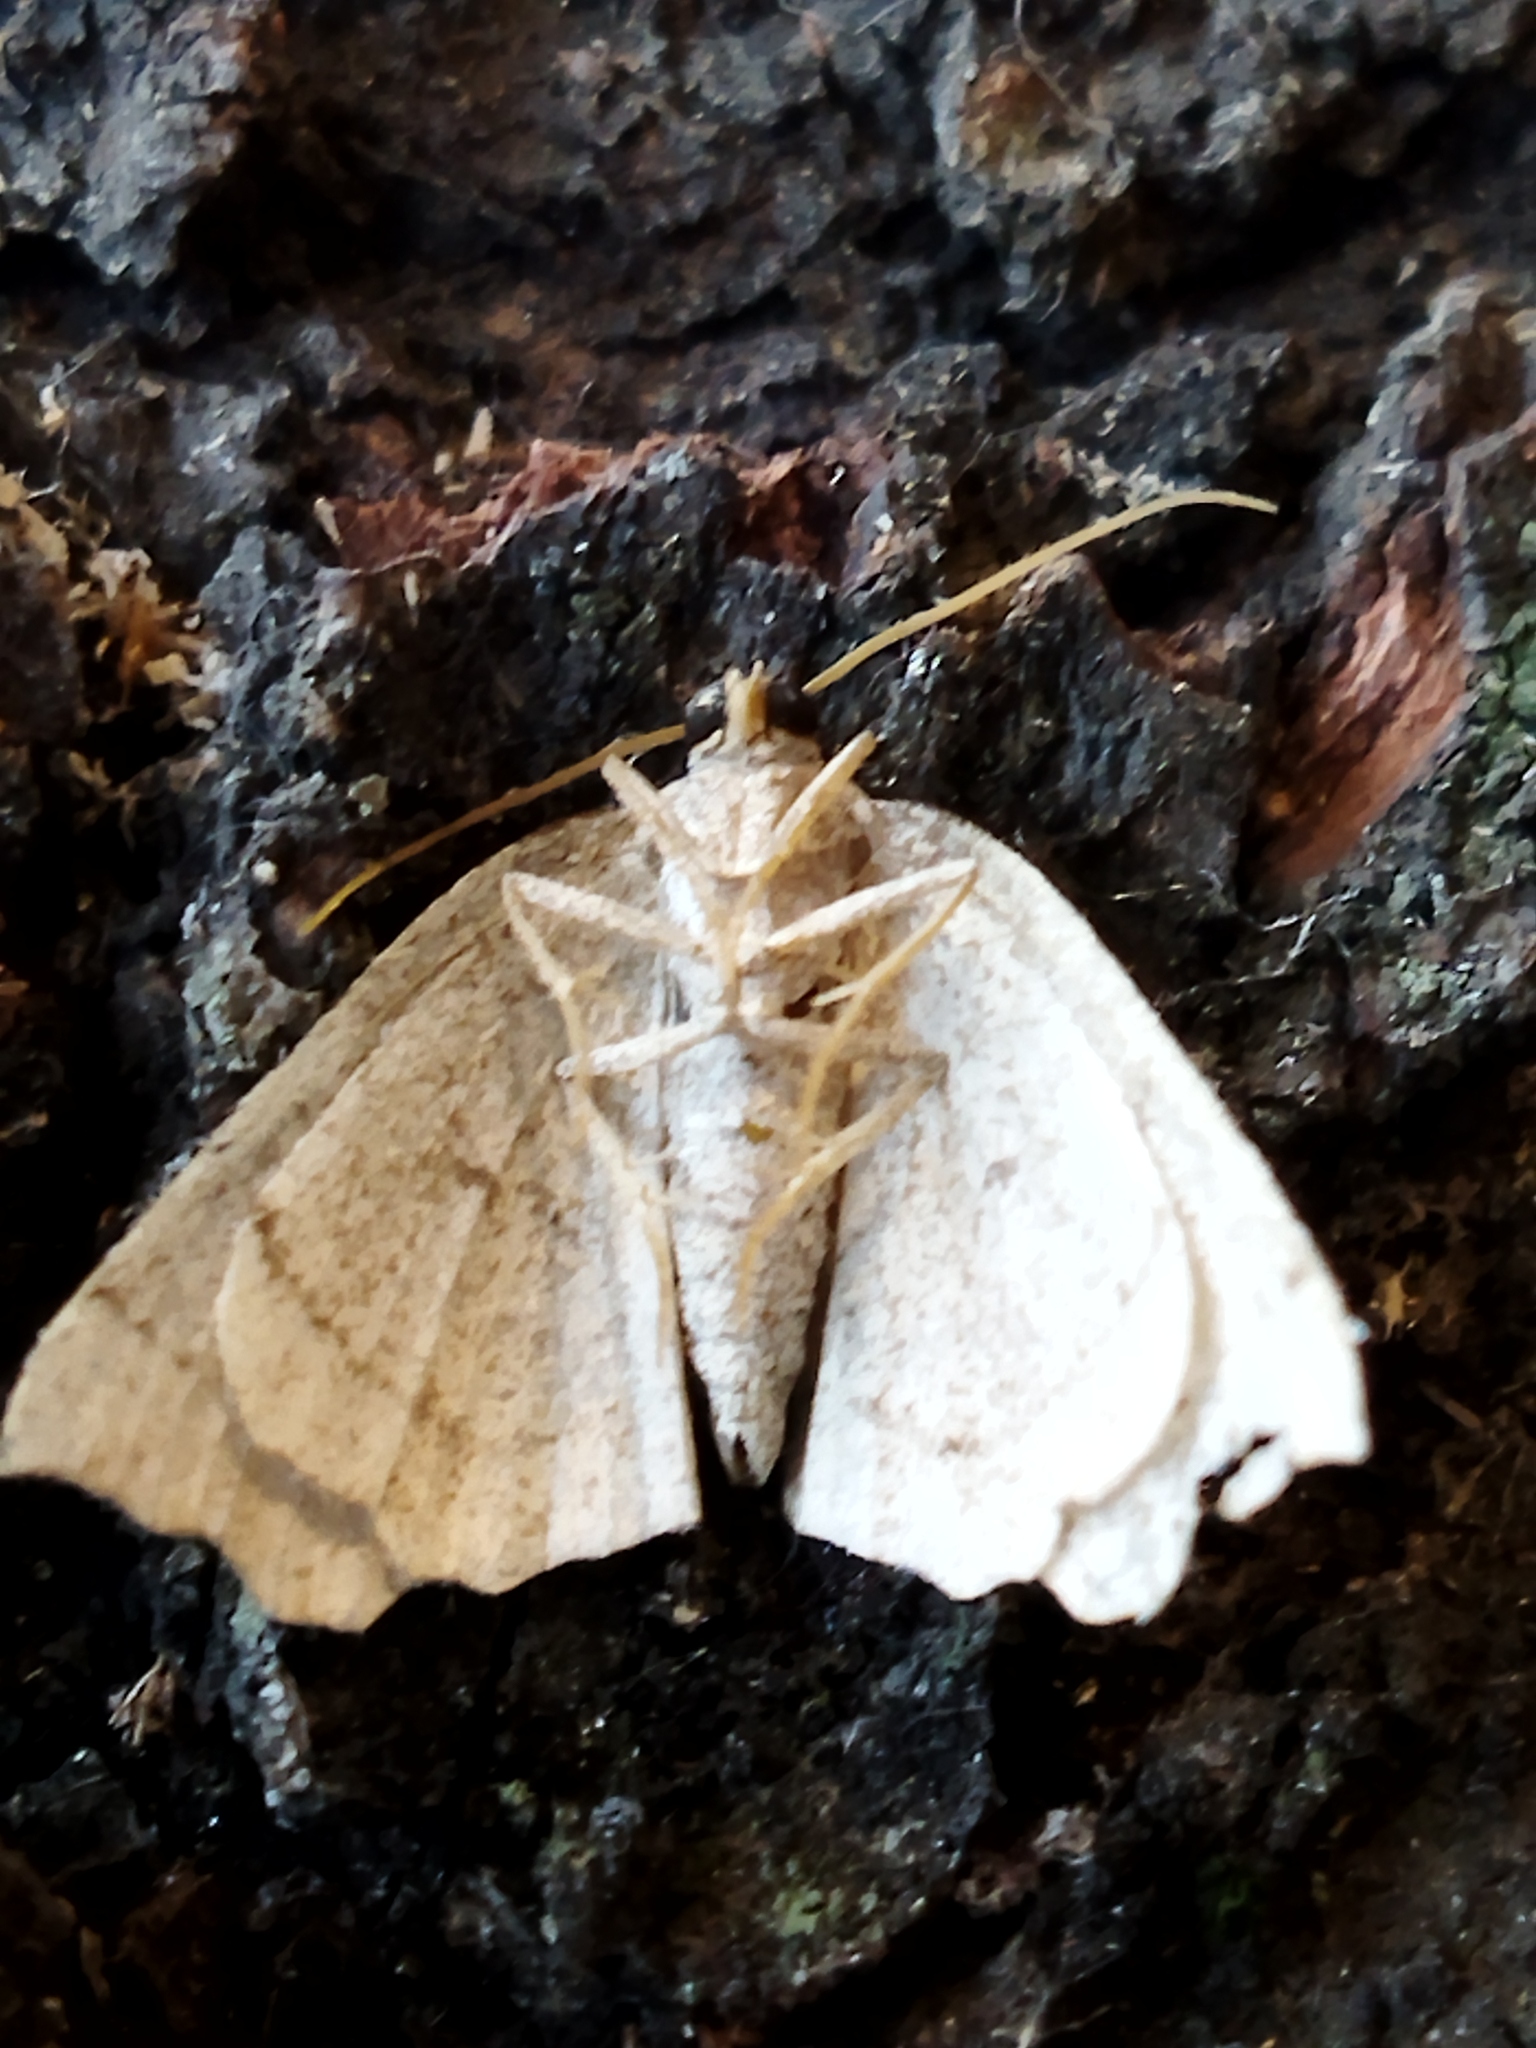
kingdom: Animalia
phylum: Arthropoda
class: Insecta
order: Lepidoptera
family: Geometridae
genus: Eilicrinia
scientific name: Eilicrinia trinotata
